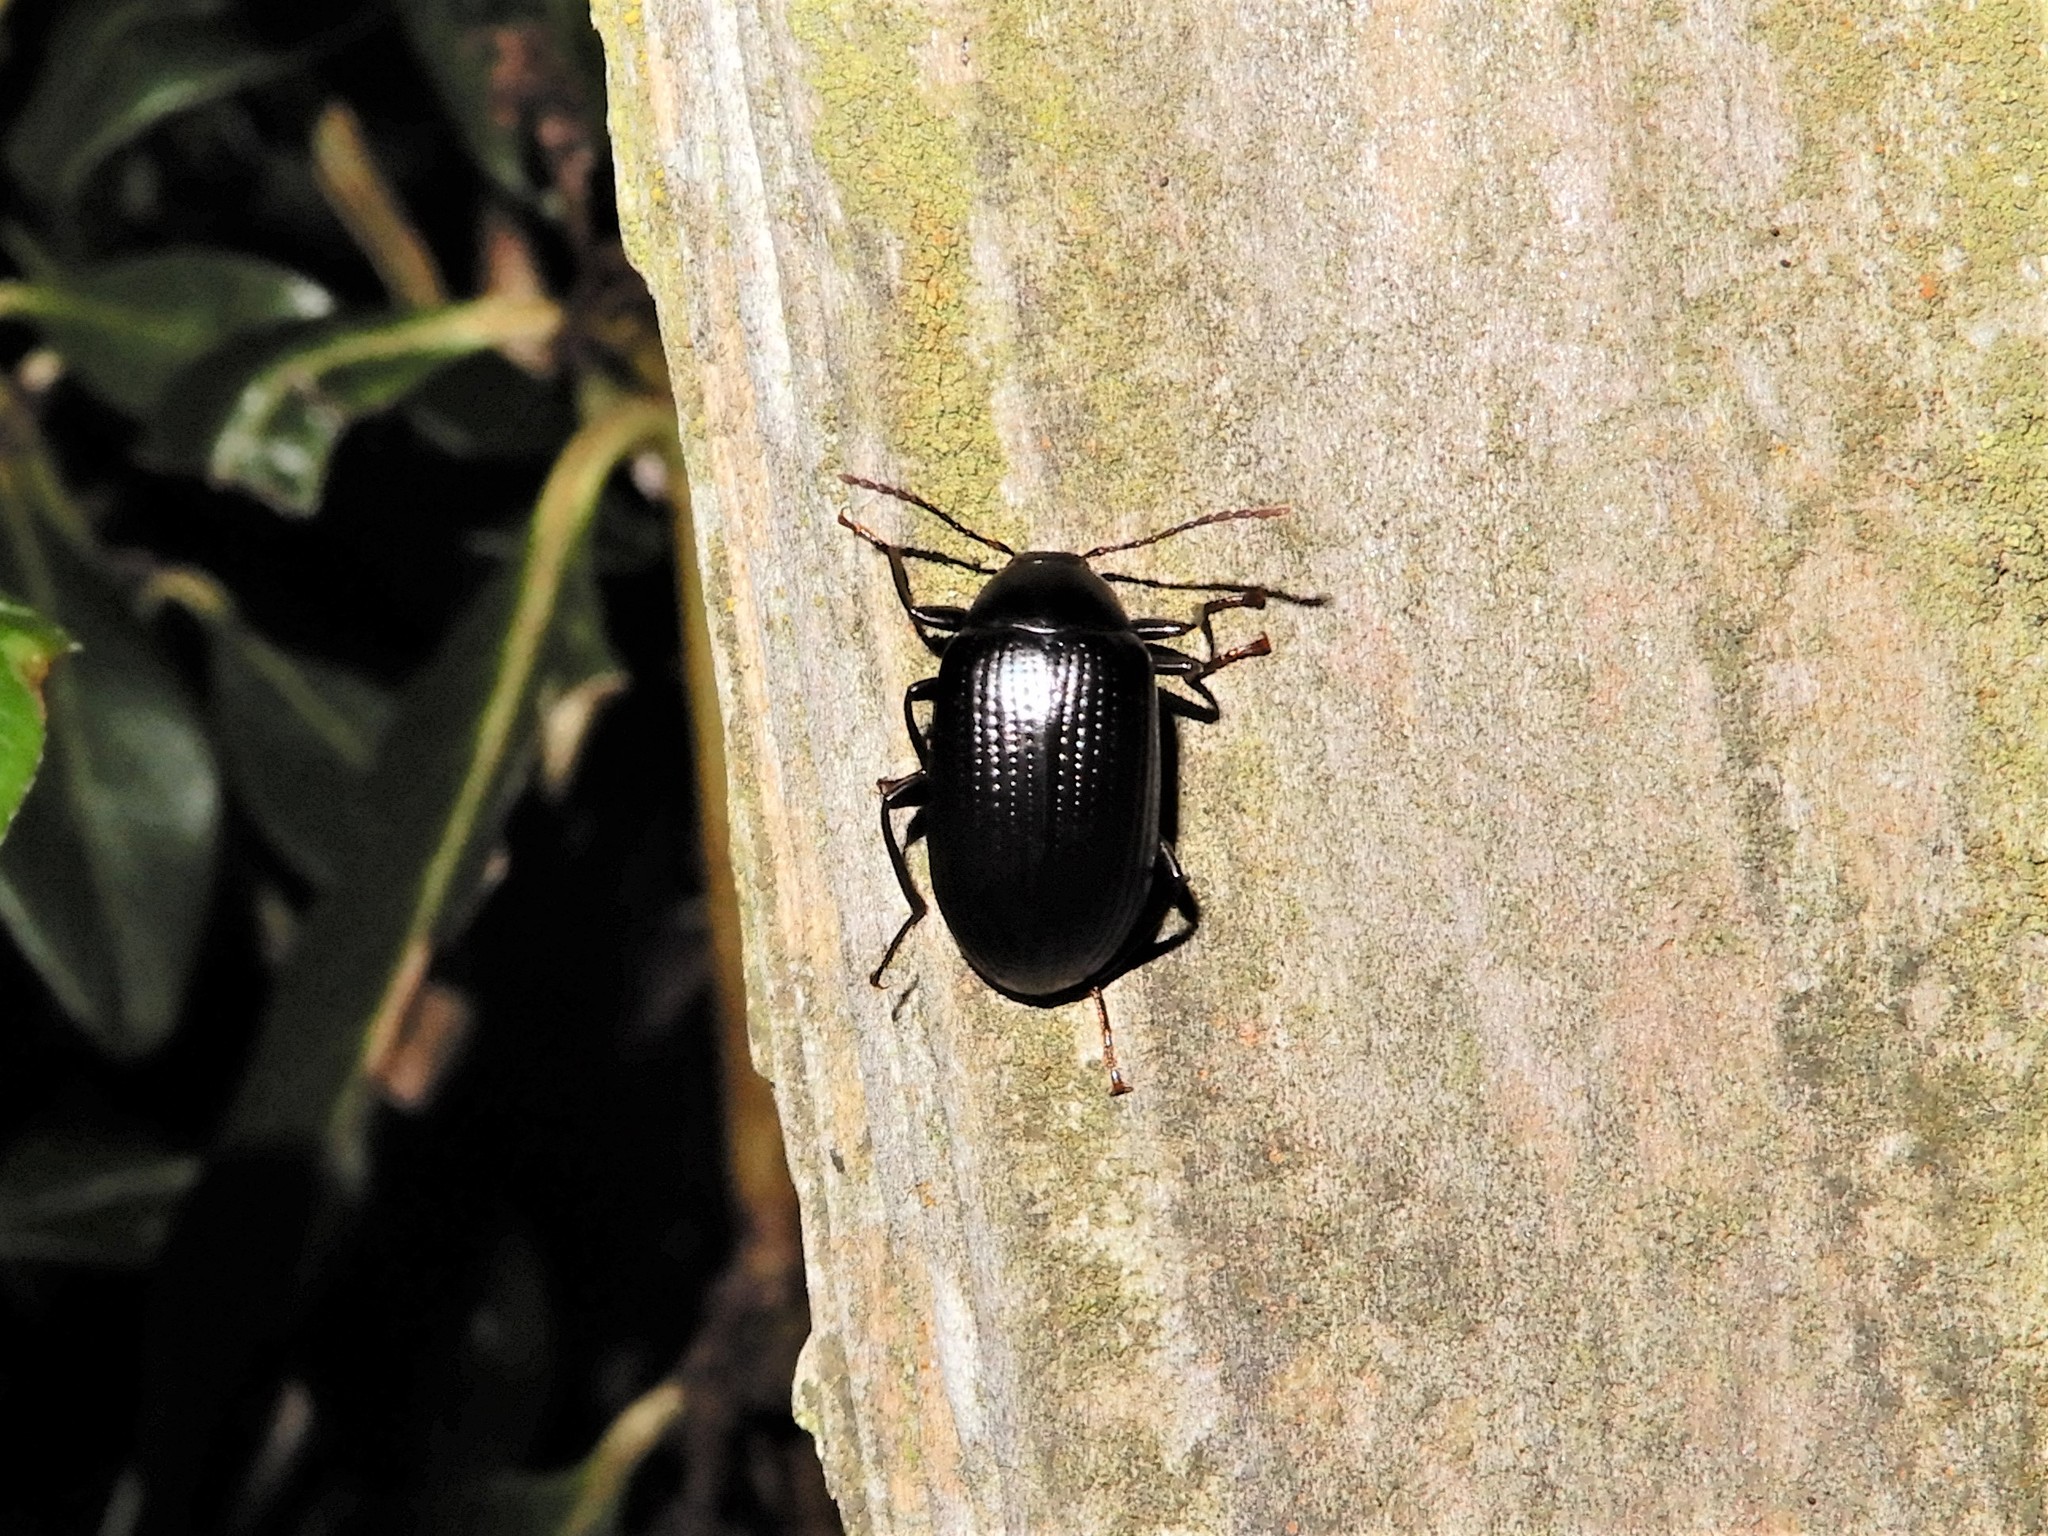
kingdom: Animalia
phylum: Arthropoda
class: Insecta
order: Coleoptera
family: Tenebrionidae
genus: Amarygmus
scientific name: Amarygmus
